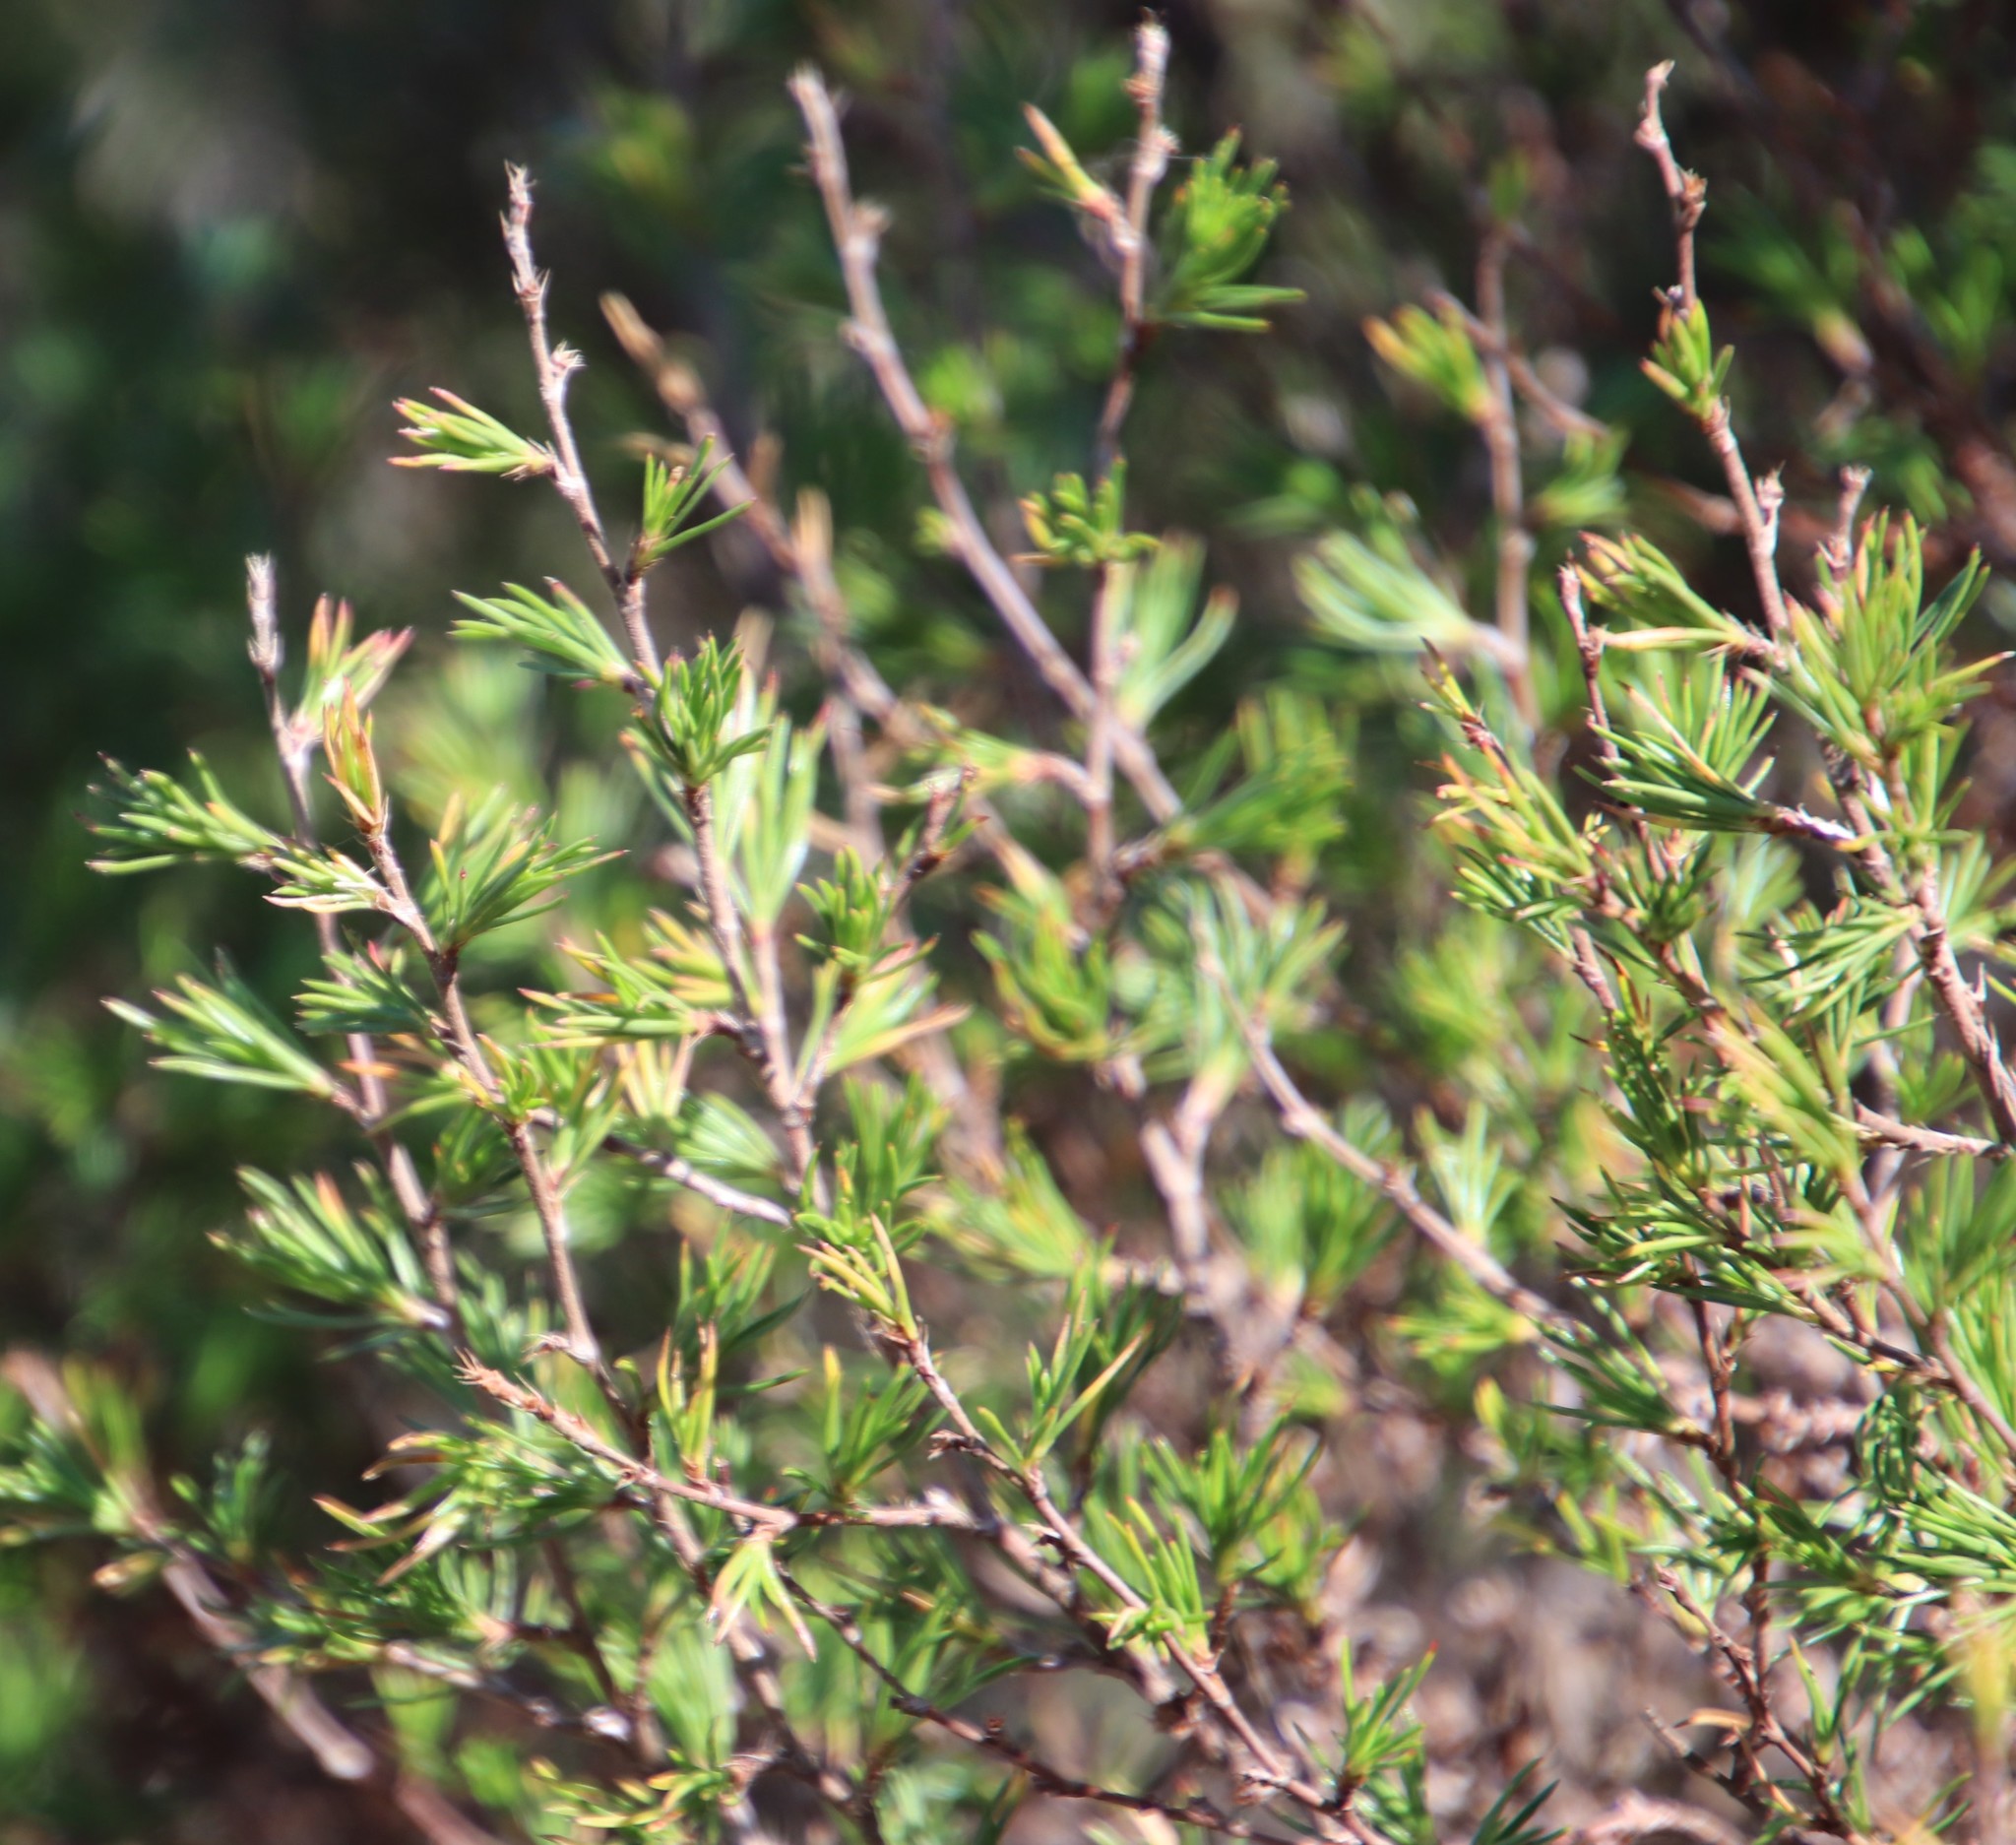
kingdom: Plantae
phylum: Tracheophyta
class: Magnoliopsida
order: Rosales
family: Rosaceae
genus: Cliffortia
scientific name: Cliffortia atrata
